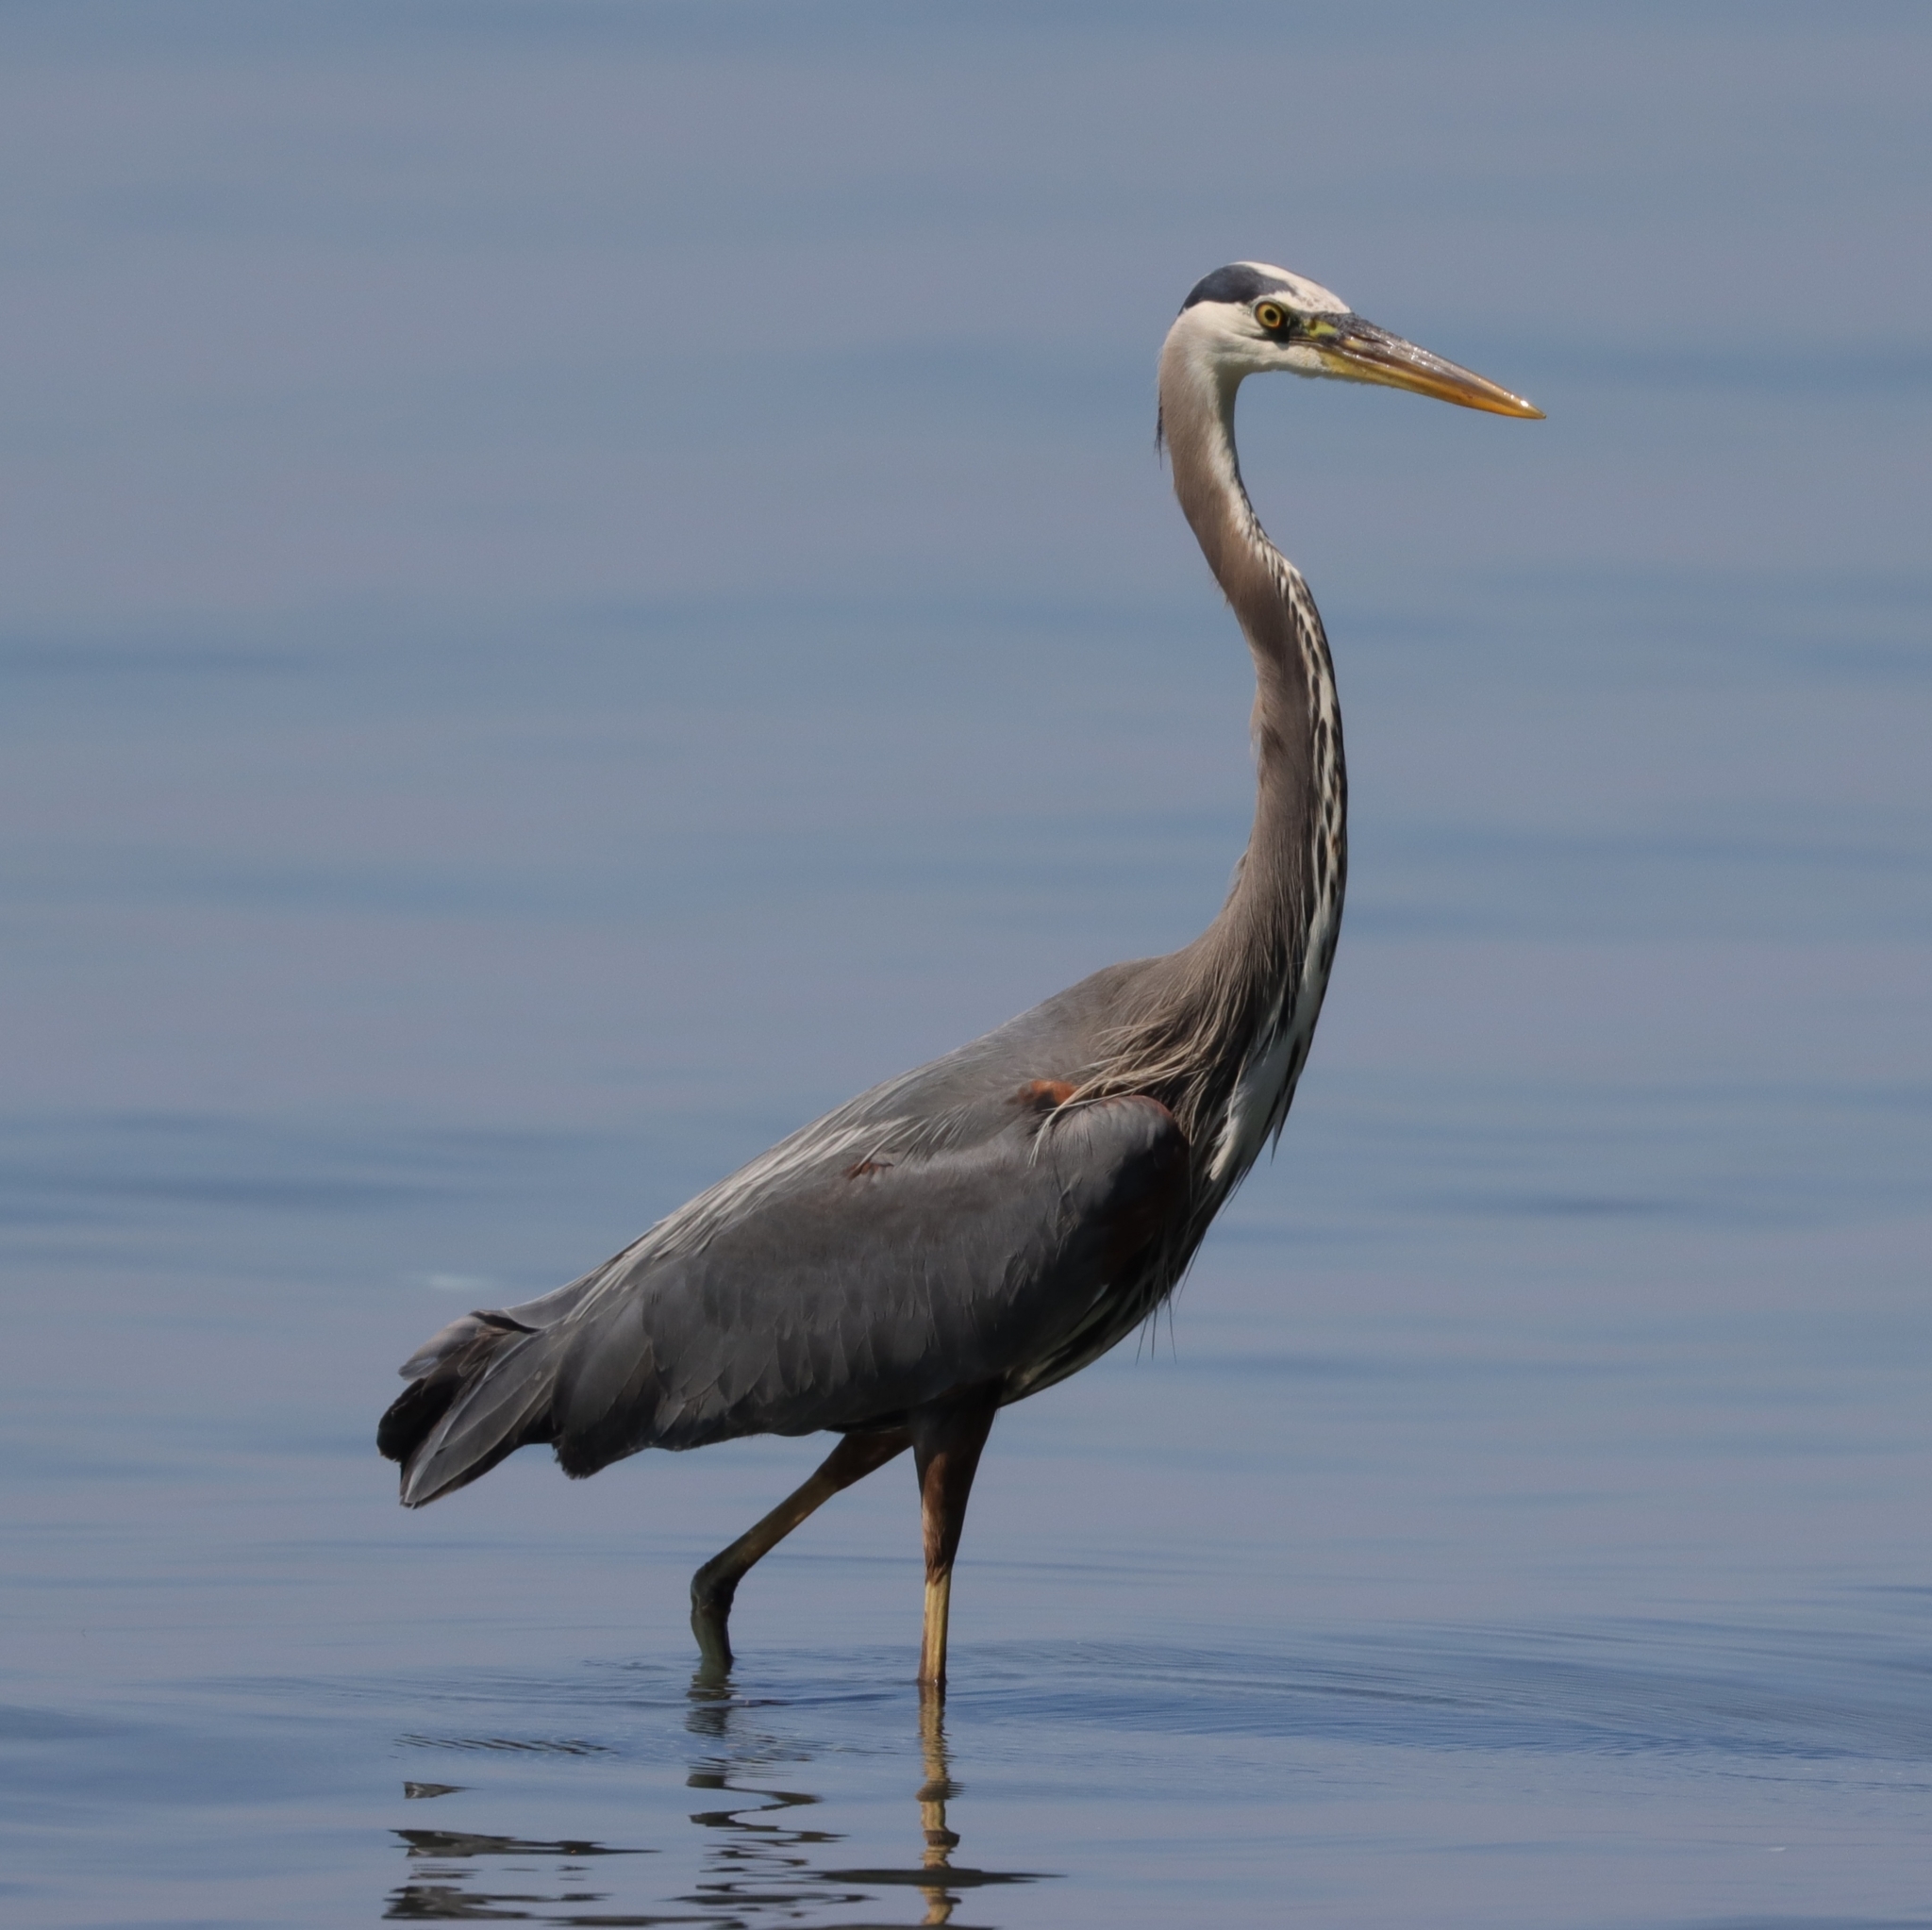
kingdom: Animalia
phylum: Chordata
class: Aves
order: Pelecaniformes
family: Ardeidae
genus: Ardea
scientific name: Ardea herodias
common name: Great blue heron
